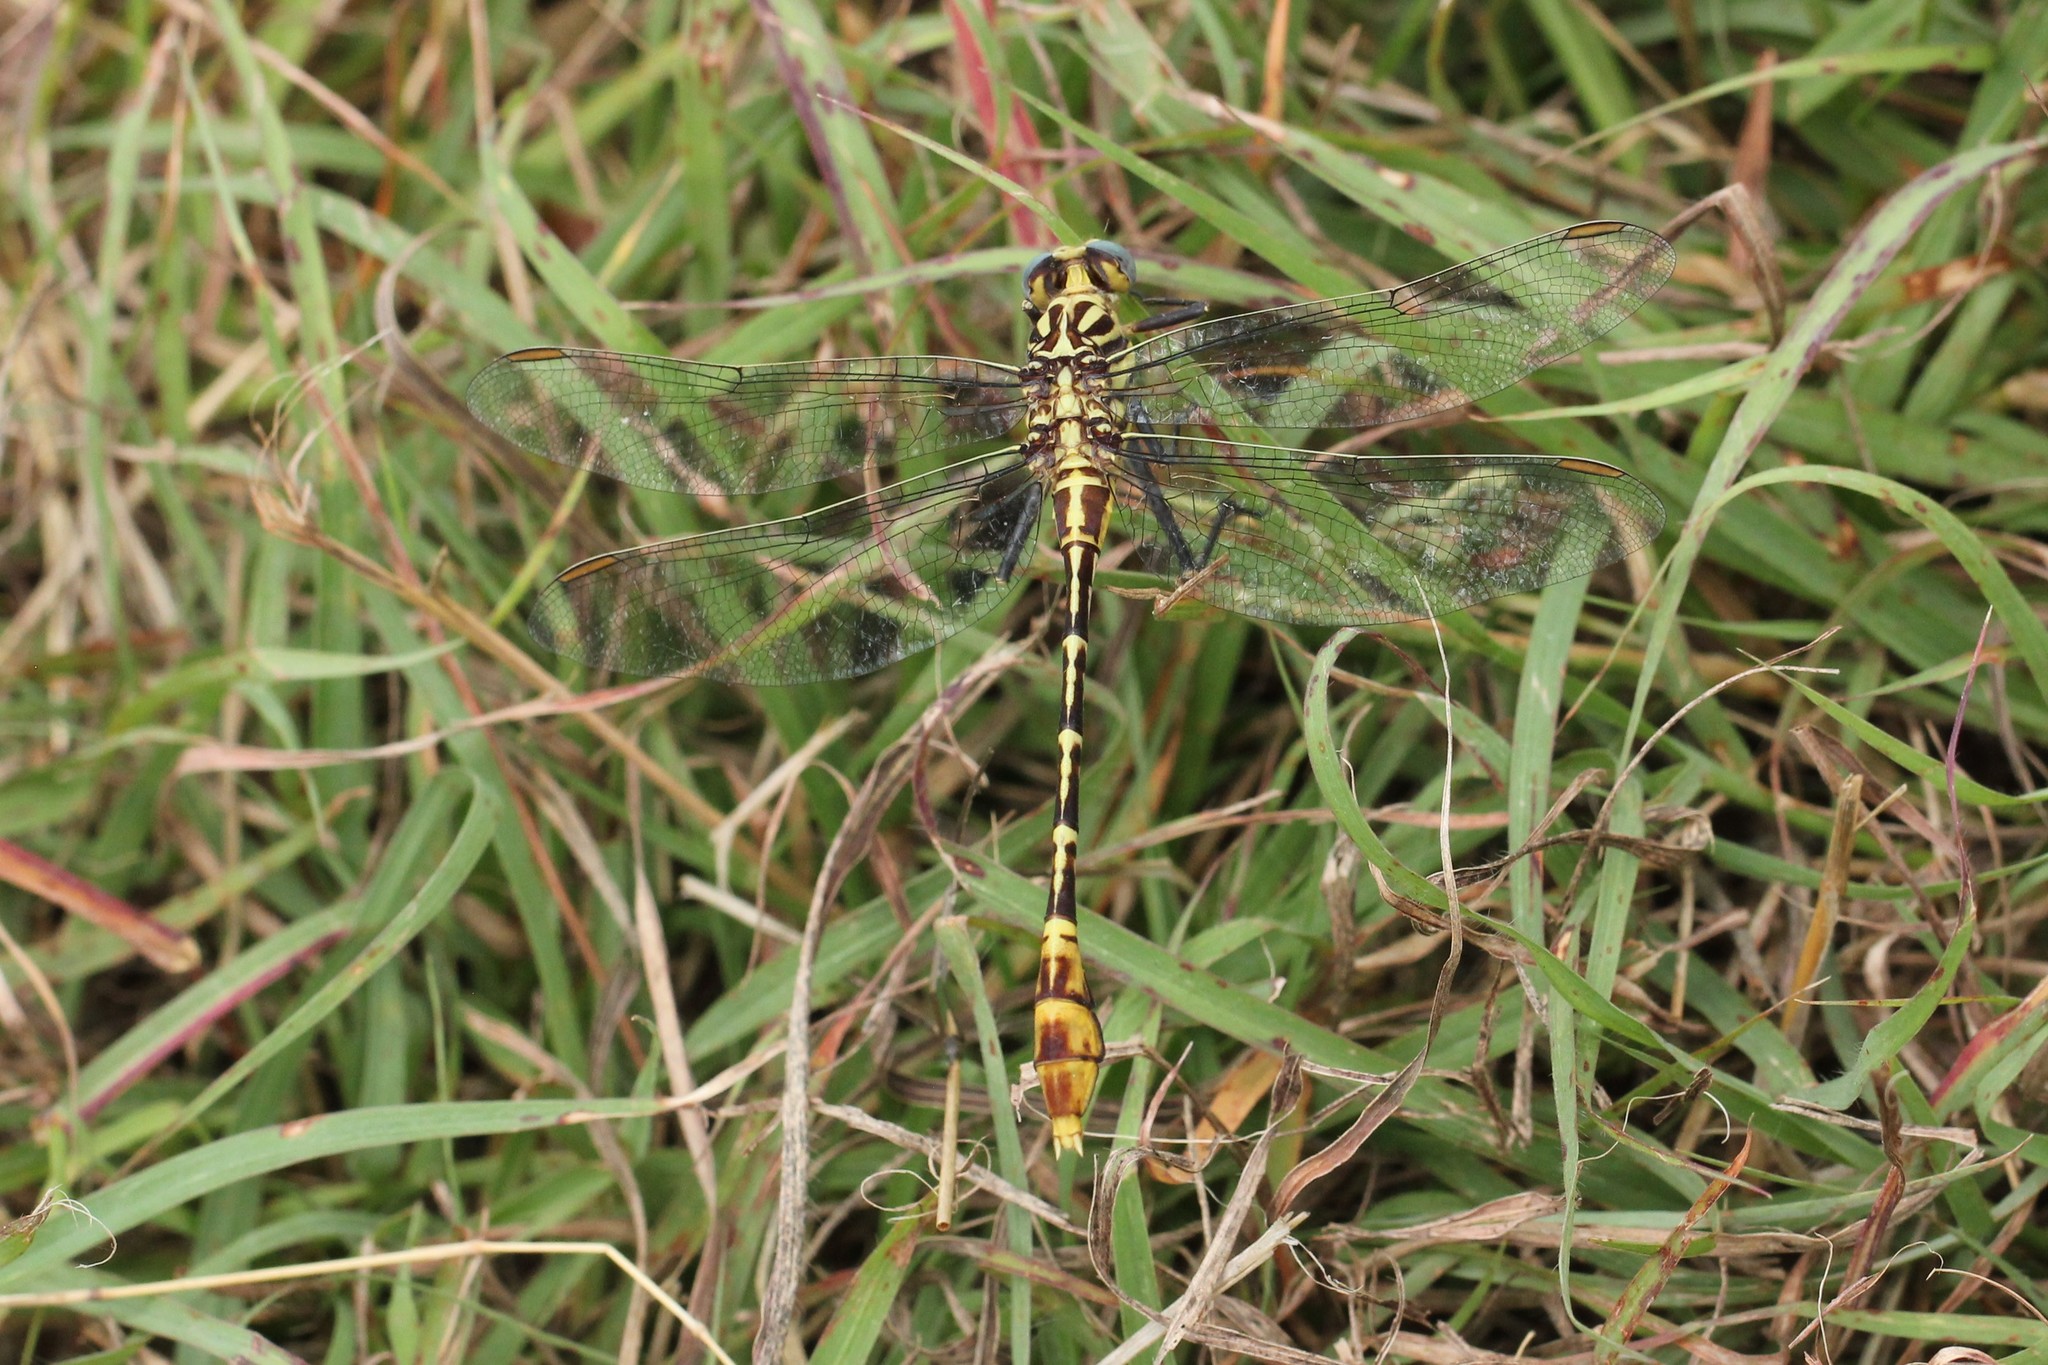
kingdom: Animalia
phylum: Arthropoda
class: Insecta
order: Odonata
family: Gomphidae
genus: Dromogomphus
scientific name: Dromogomphus spoliatus
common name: Flag-tailed spinyleg
